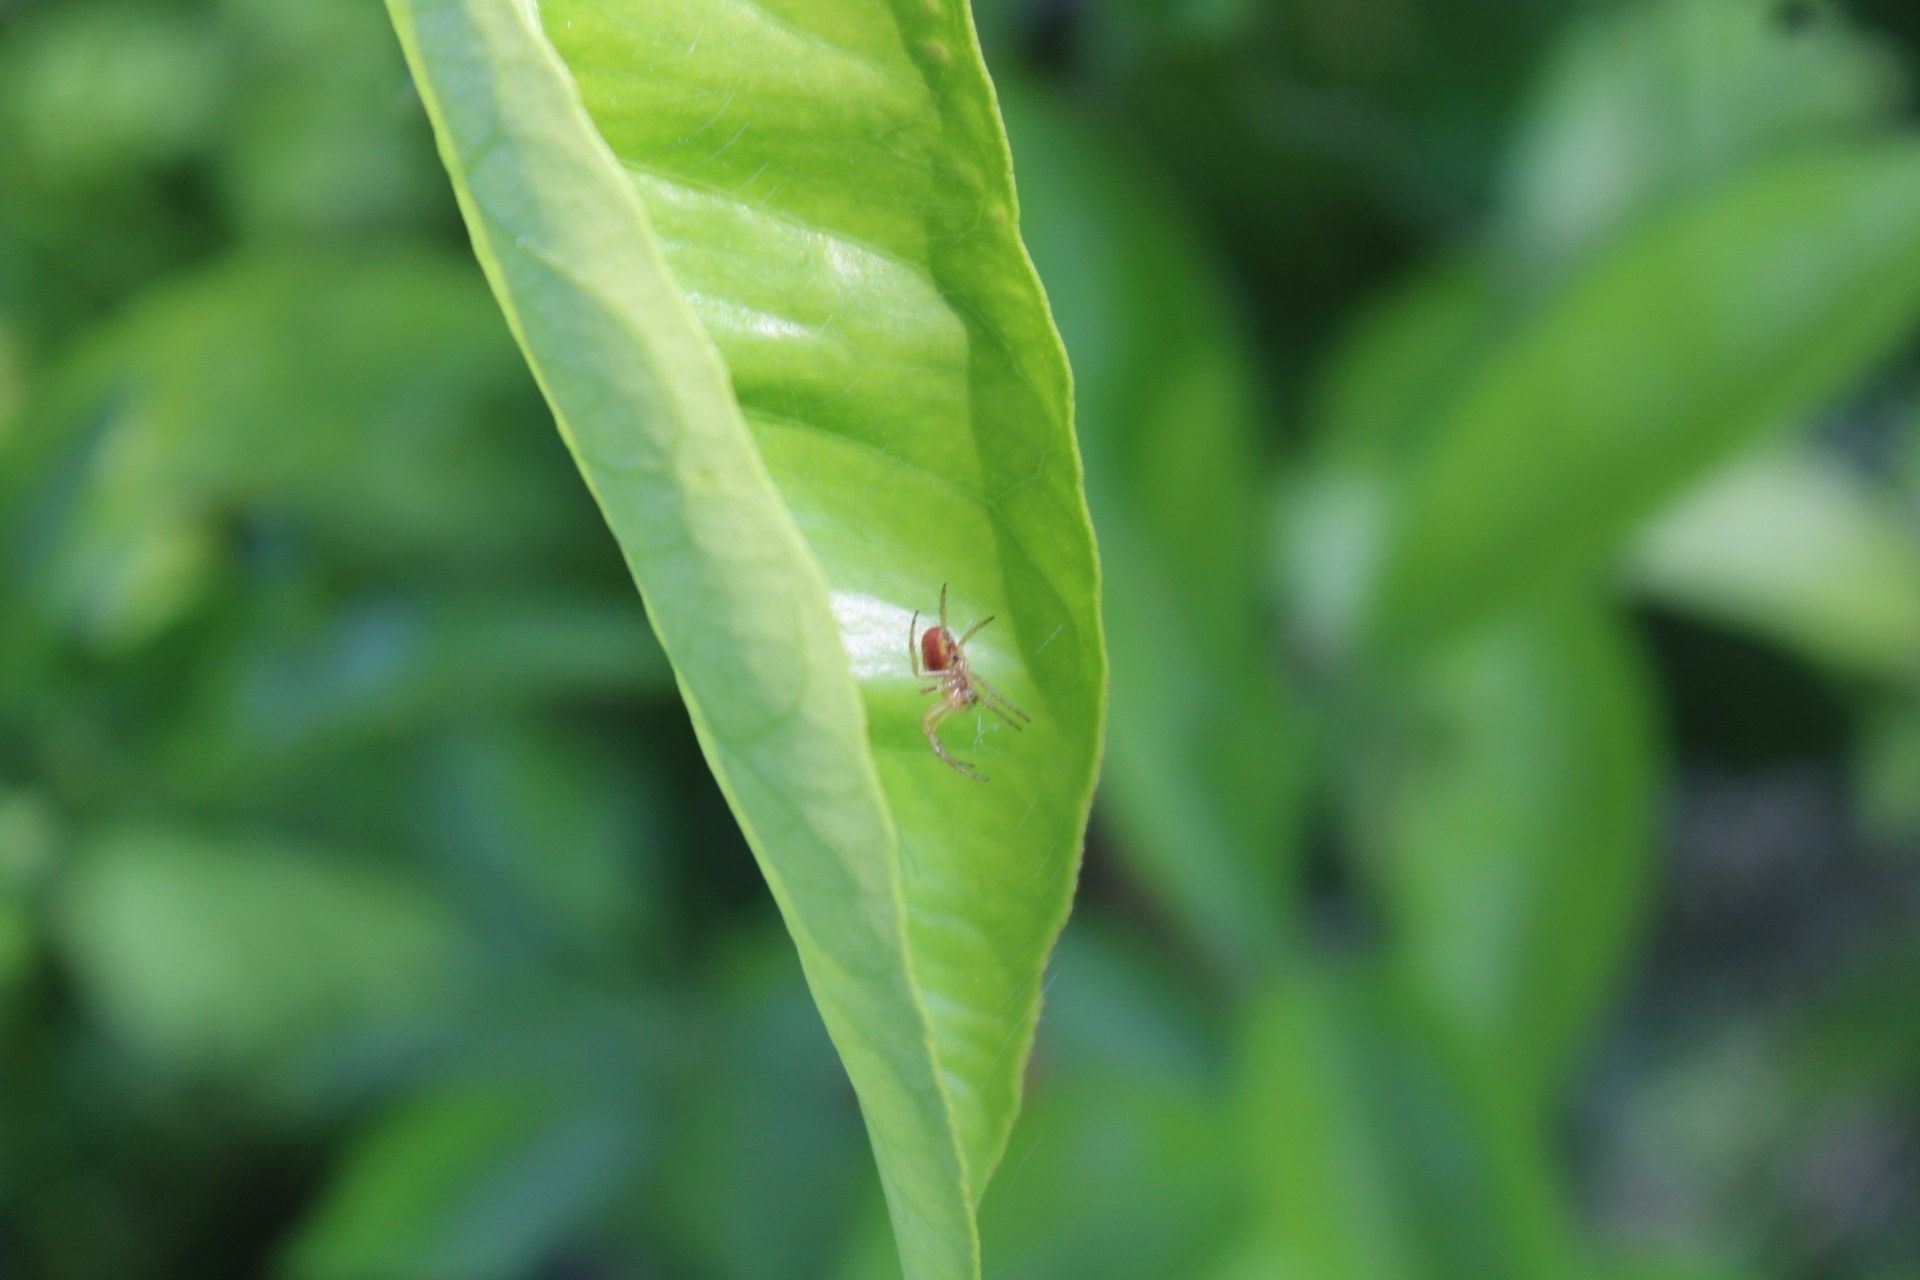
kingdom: Animalia
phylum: Arthropoda
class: Arachnida
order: Araneae
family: Araneidae
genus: Araniella
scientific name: Araniella displicata
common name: Sixspotted orb weaver
